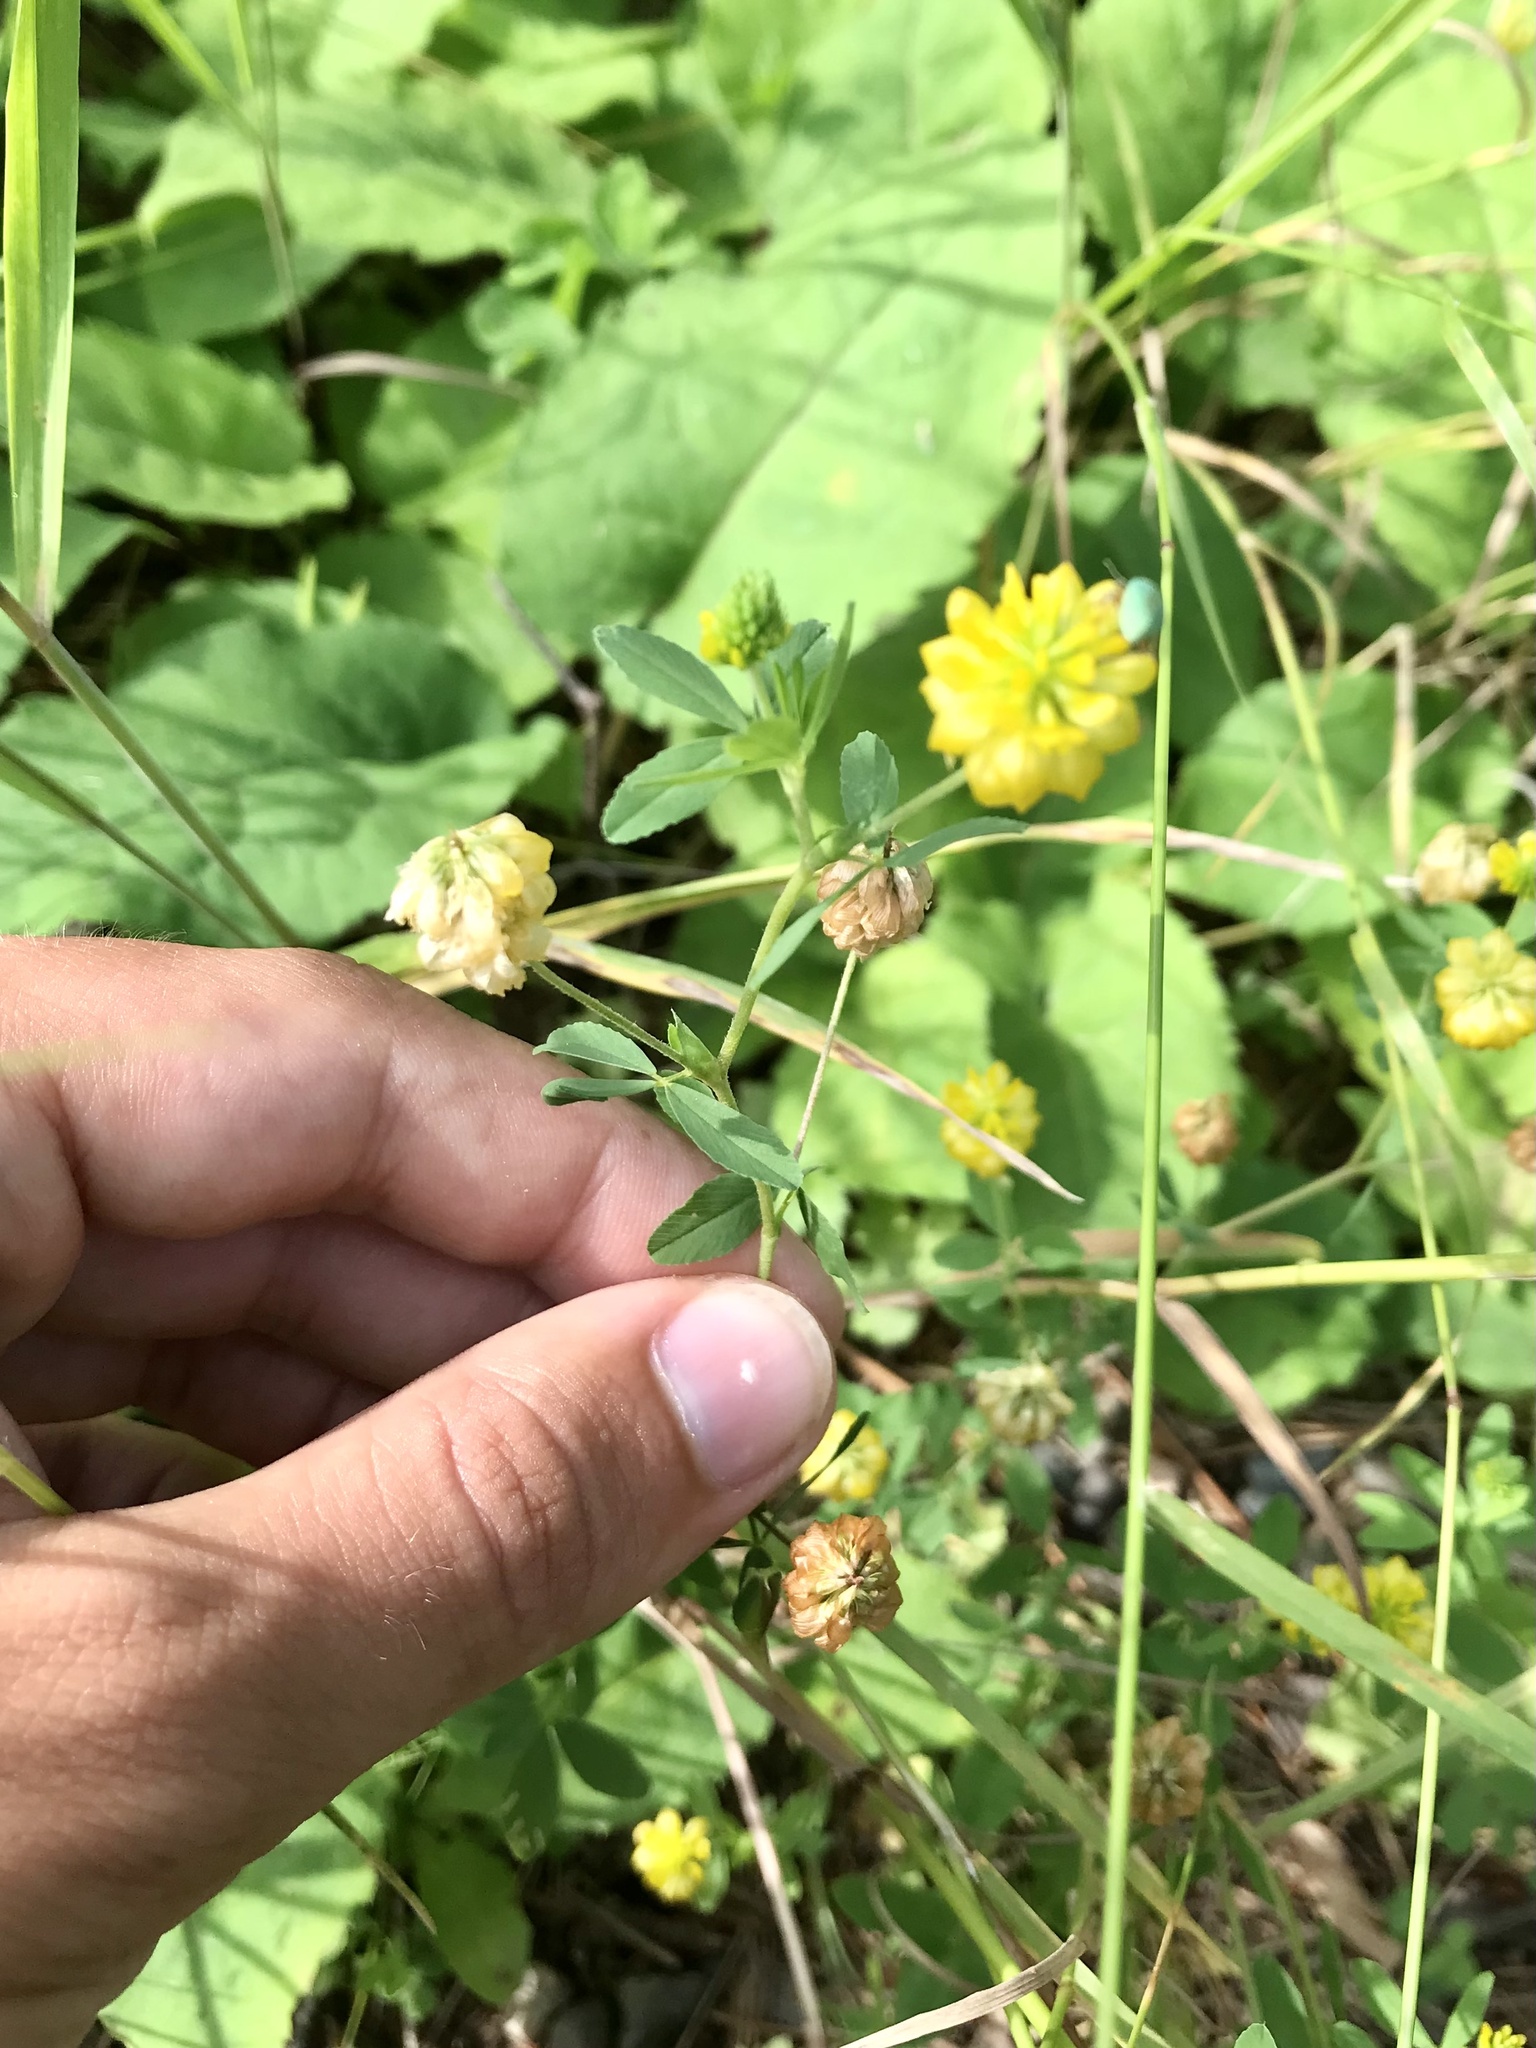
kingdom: Plantae
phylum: Tracheophyta
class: Magnoliopsida
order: Fabales
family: Fabaceae
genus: Trifolium
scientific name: Trifolium aureum
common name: Golden clover
